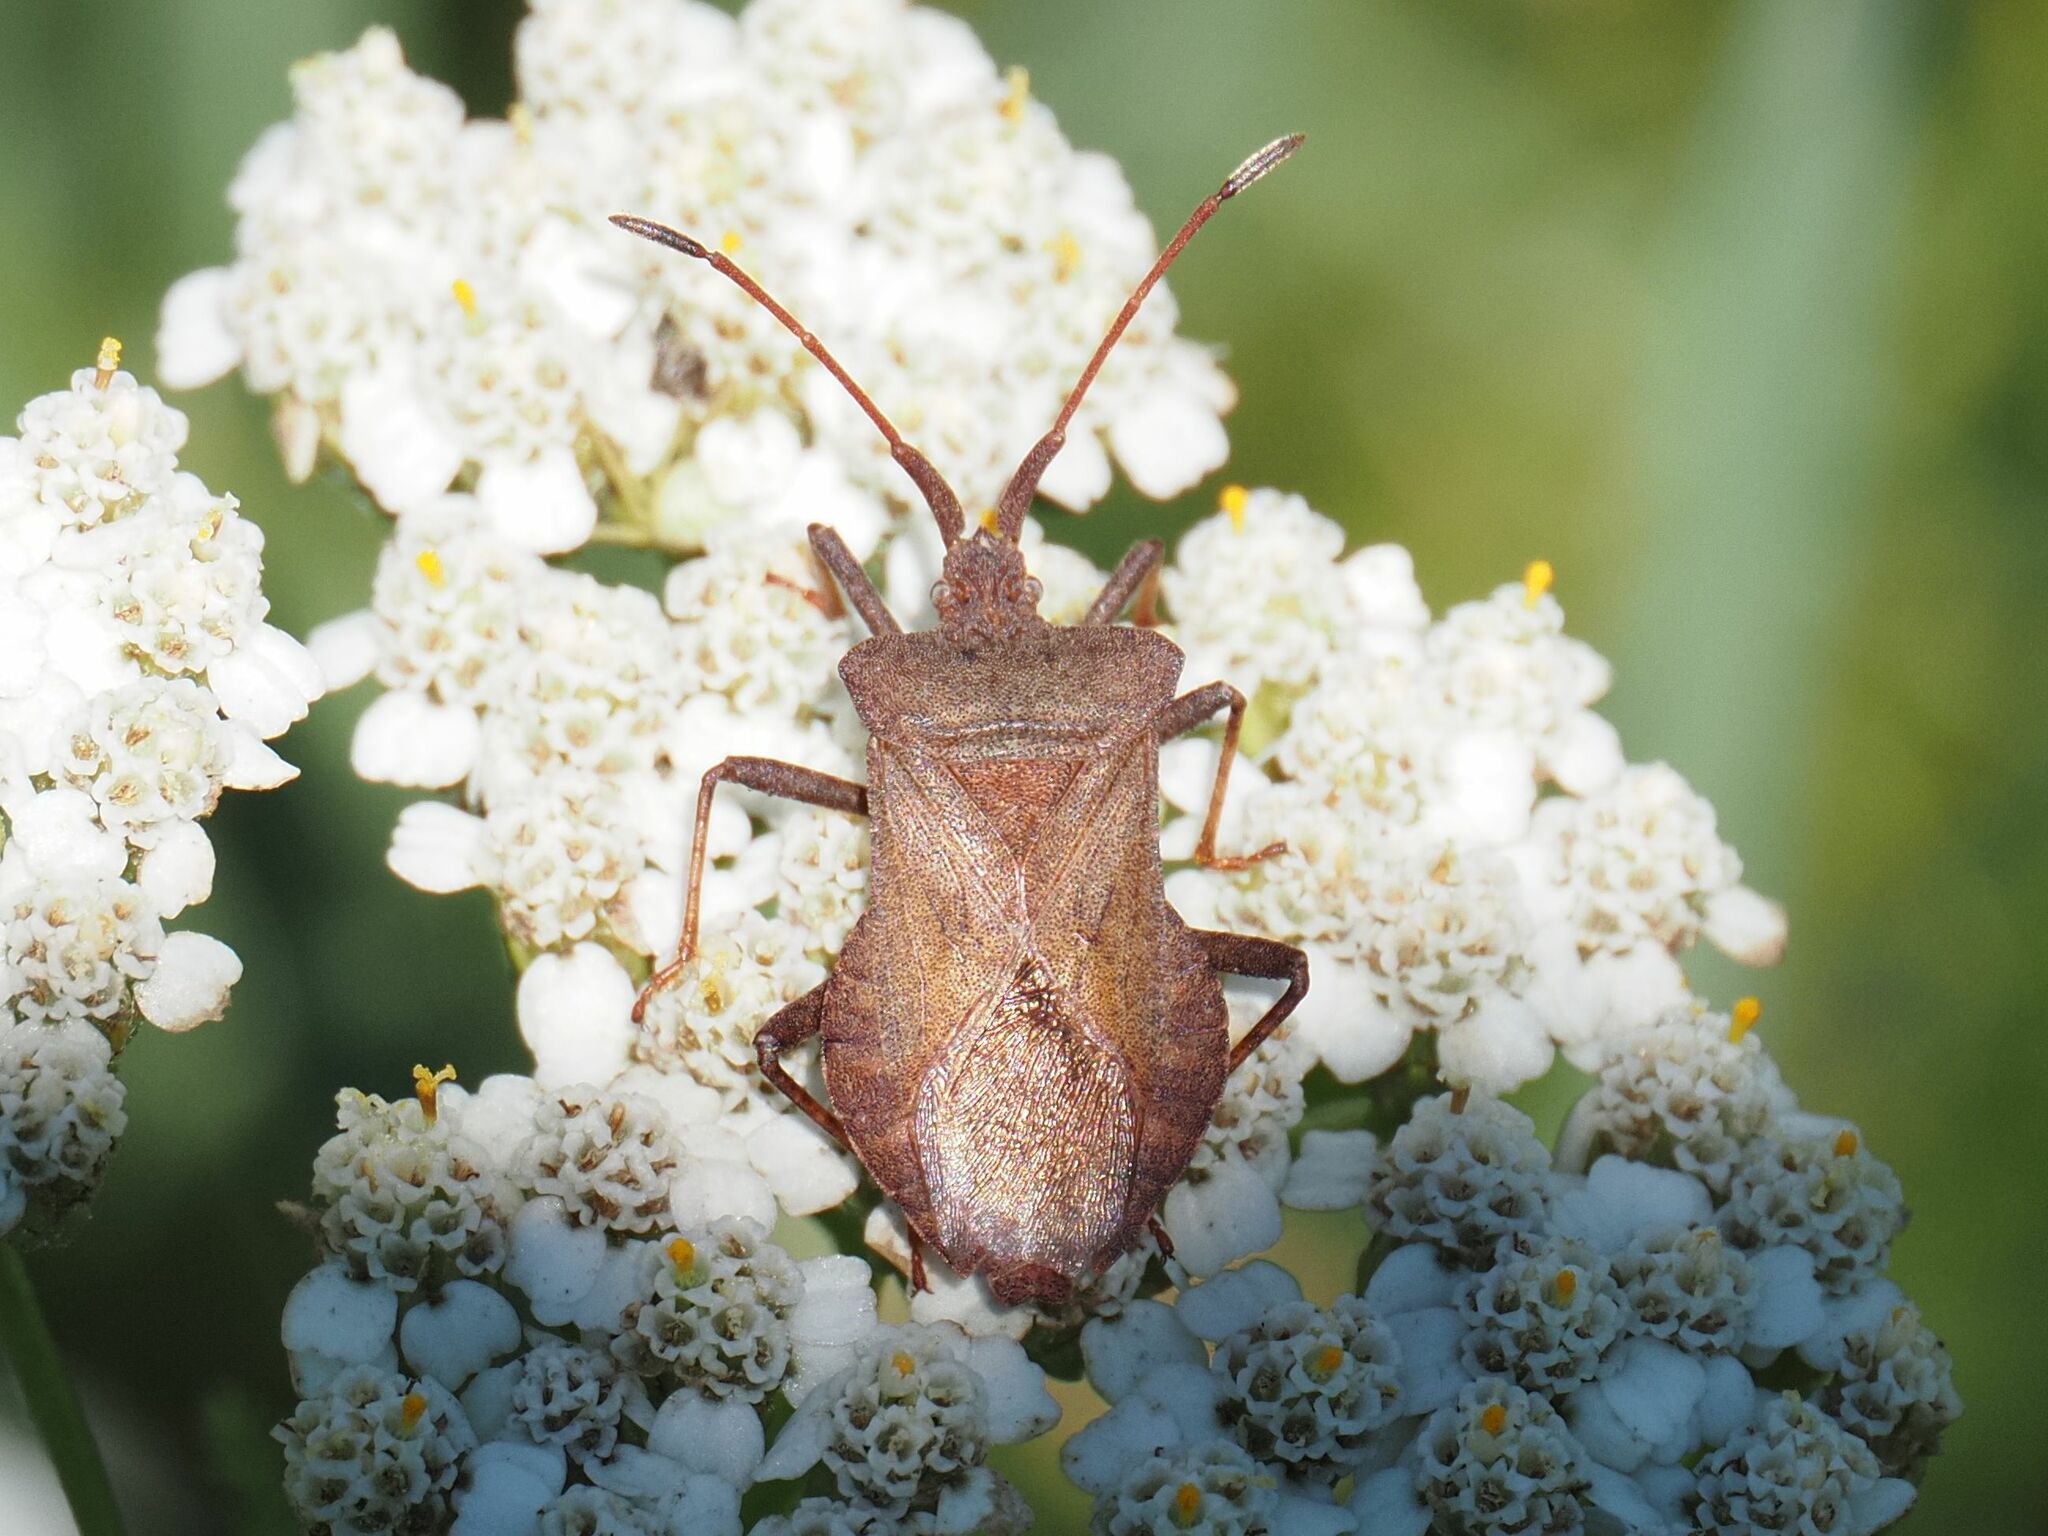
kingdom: Animalia
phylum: Arthropoda
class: Insecta
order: Hemiptera
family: Coreidae
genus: Coreus
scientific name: Coreus marginatus
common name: Dock bug
